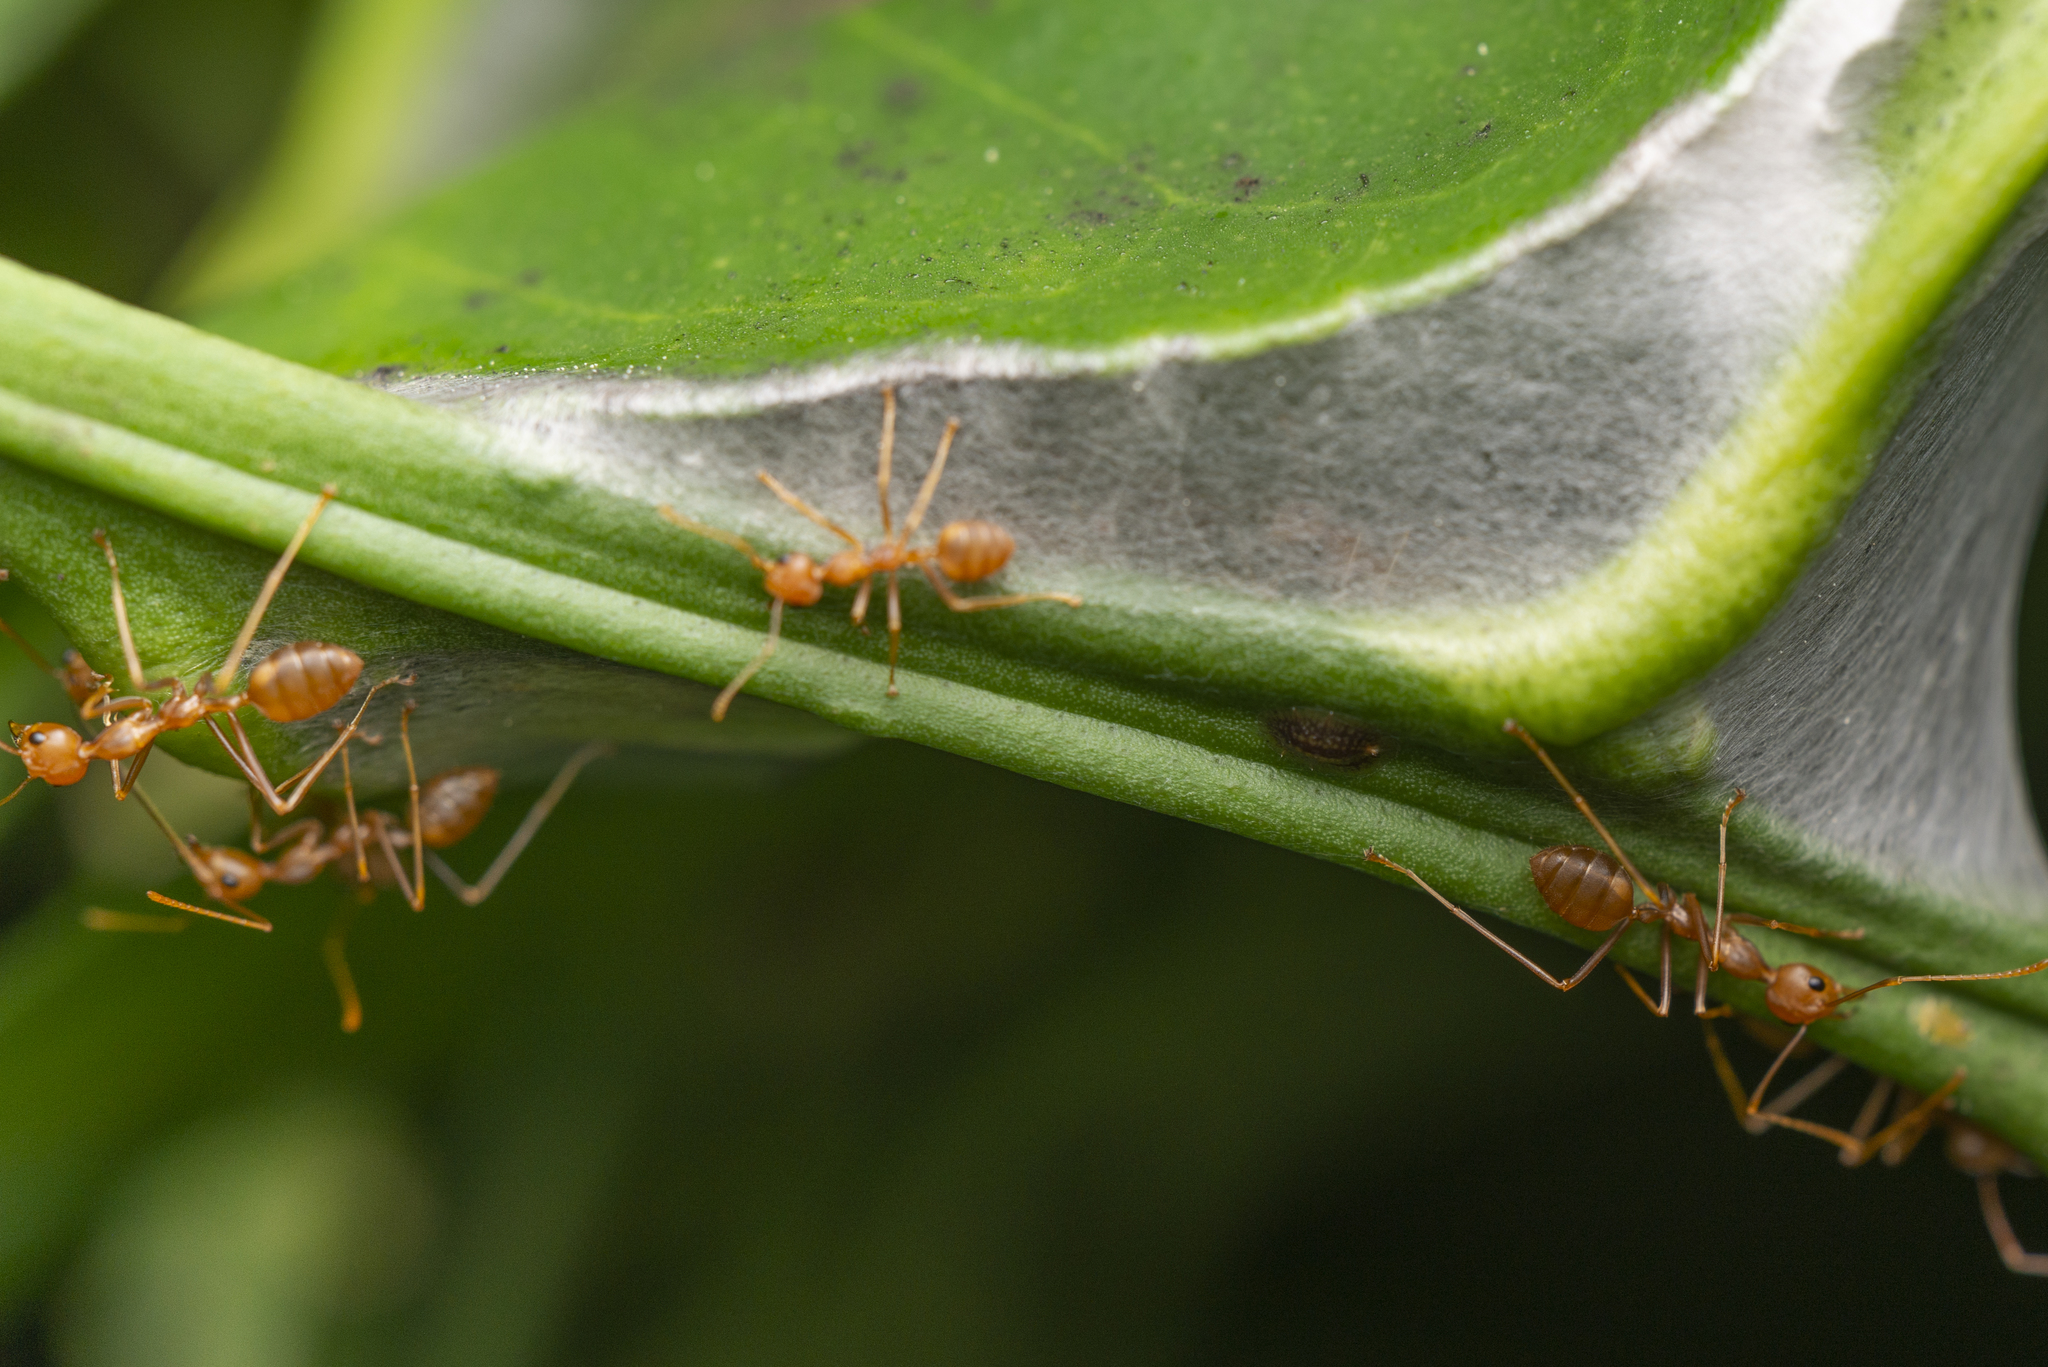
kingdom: Animalia
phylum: Arthropoda
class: Insecta
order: Hymenoptera
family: Formicidae
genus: Oecophylla
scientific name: Oecophylla smaragdina
